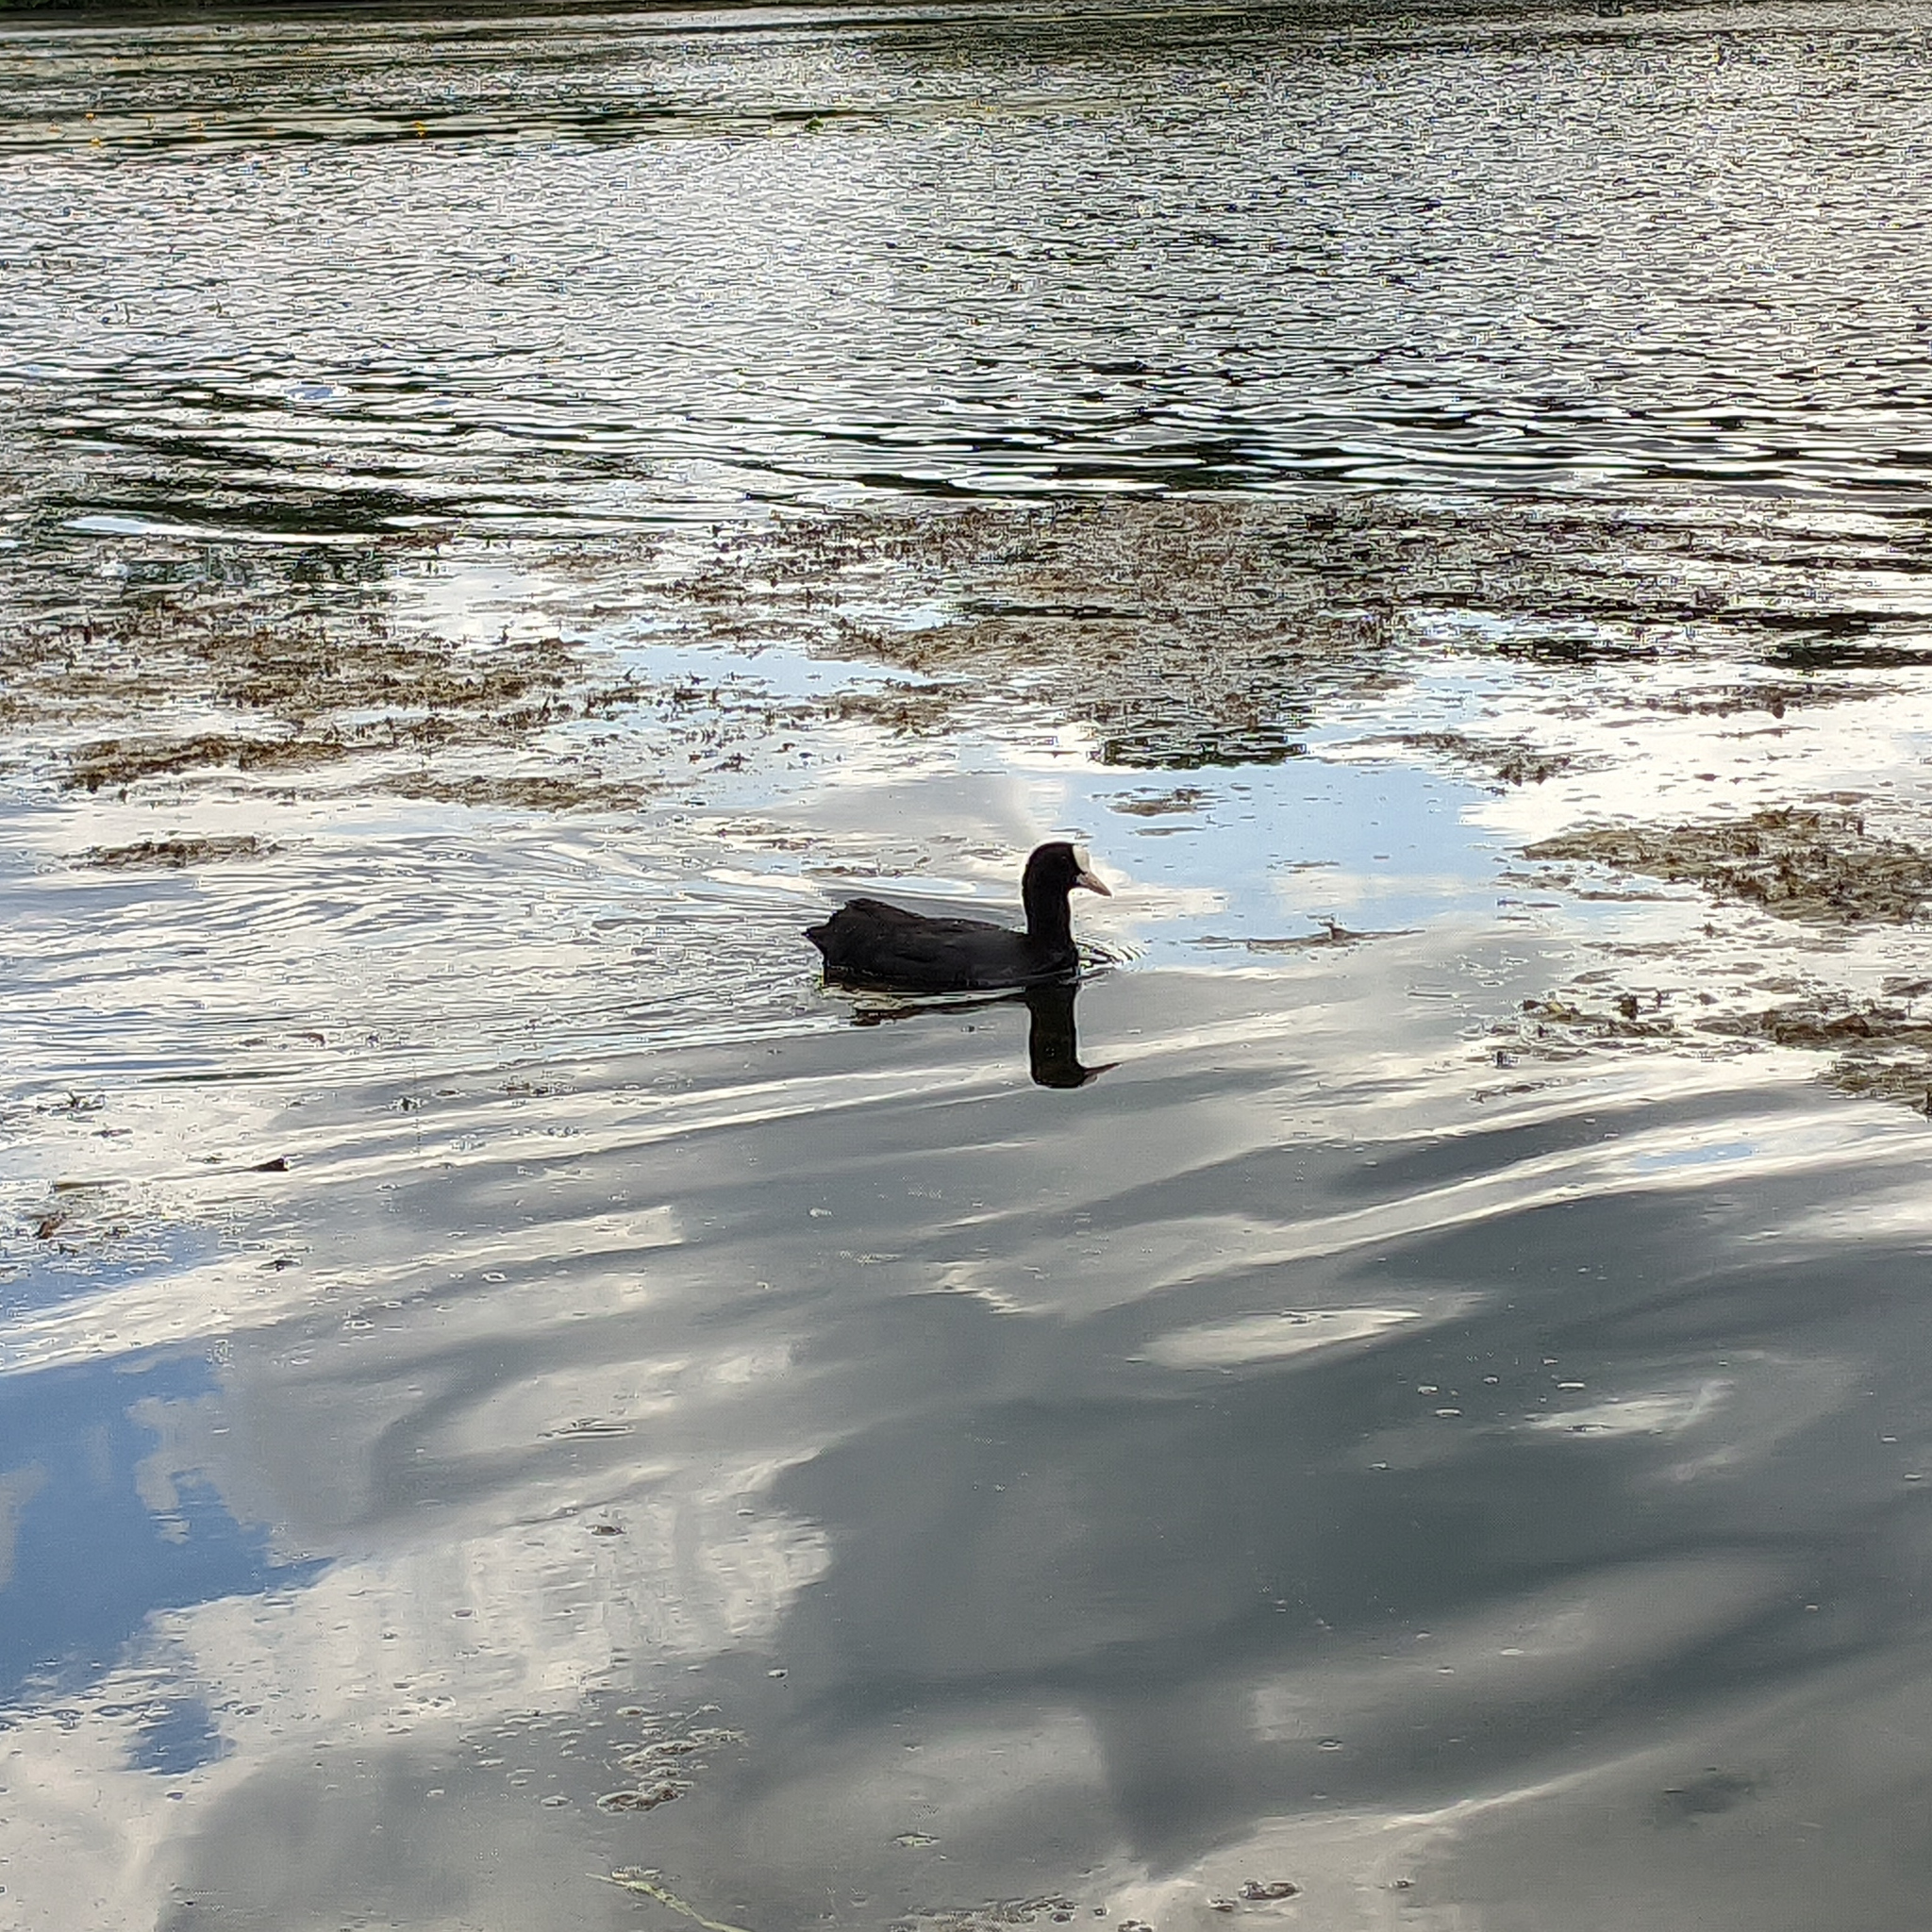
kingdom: Animalia
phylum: Chordata
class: Aves
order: Gruiformes
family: Rallidae
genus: Fulica
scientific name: Fulica atra
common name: Eurasian coot
